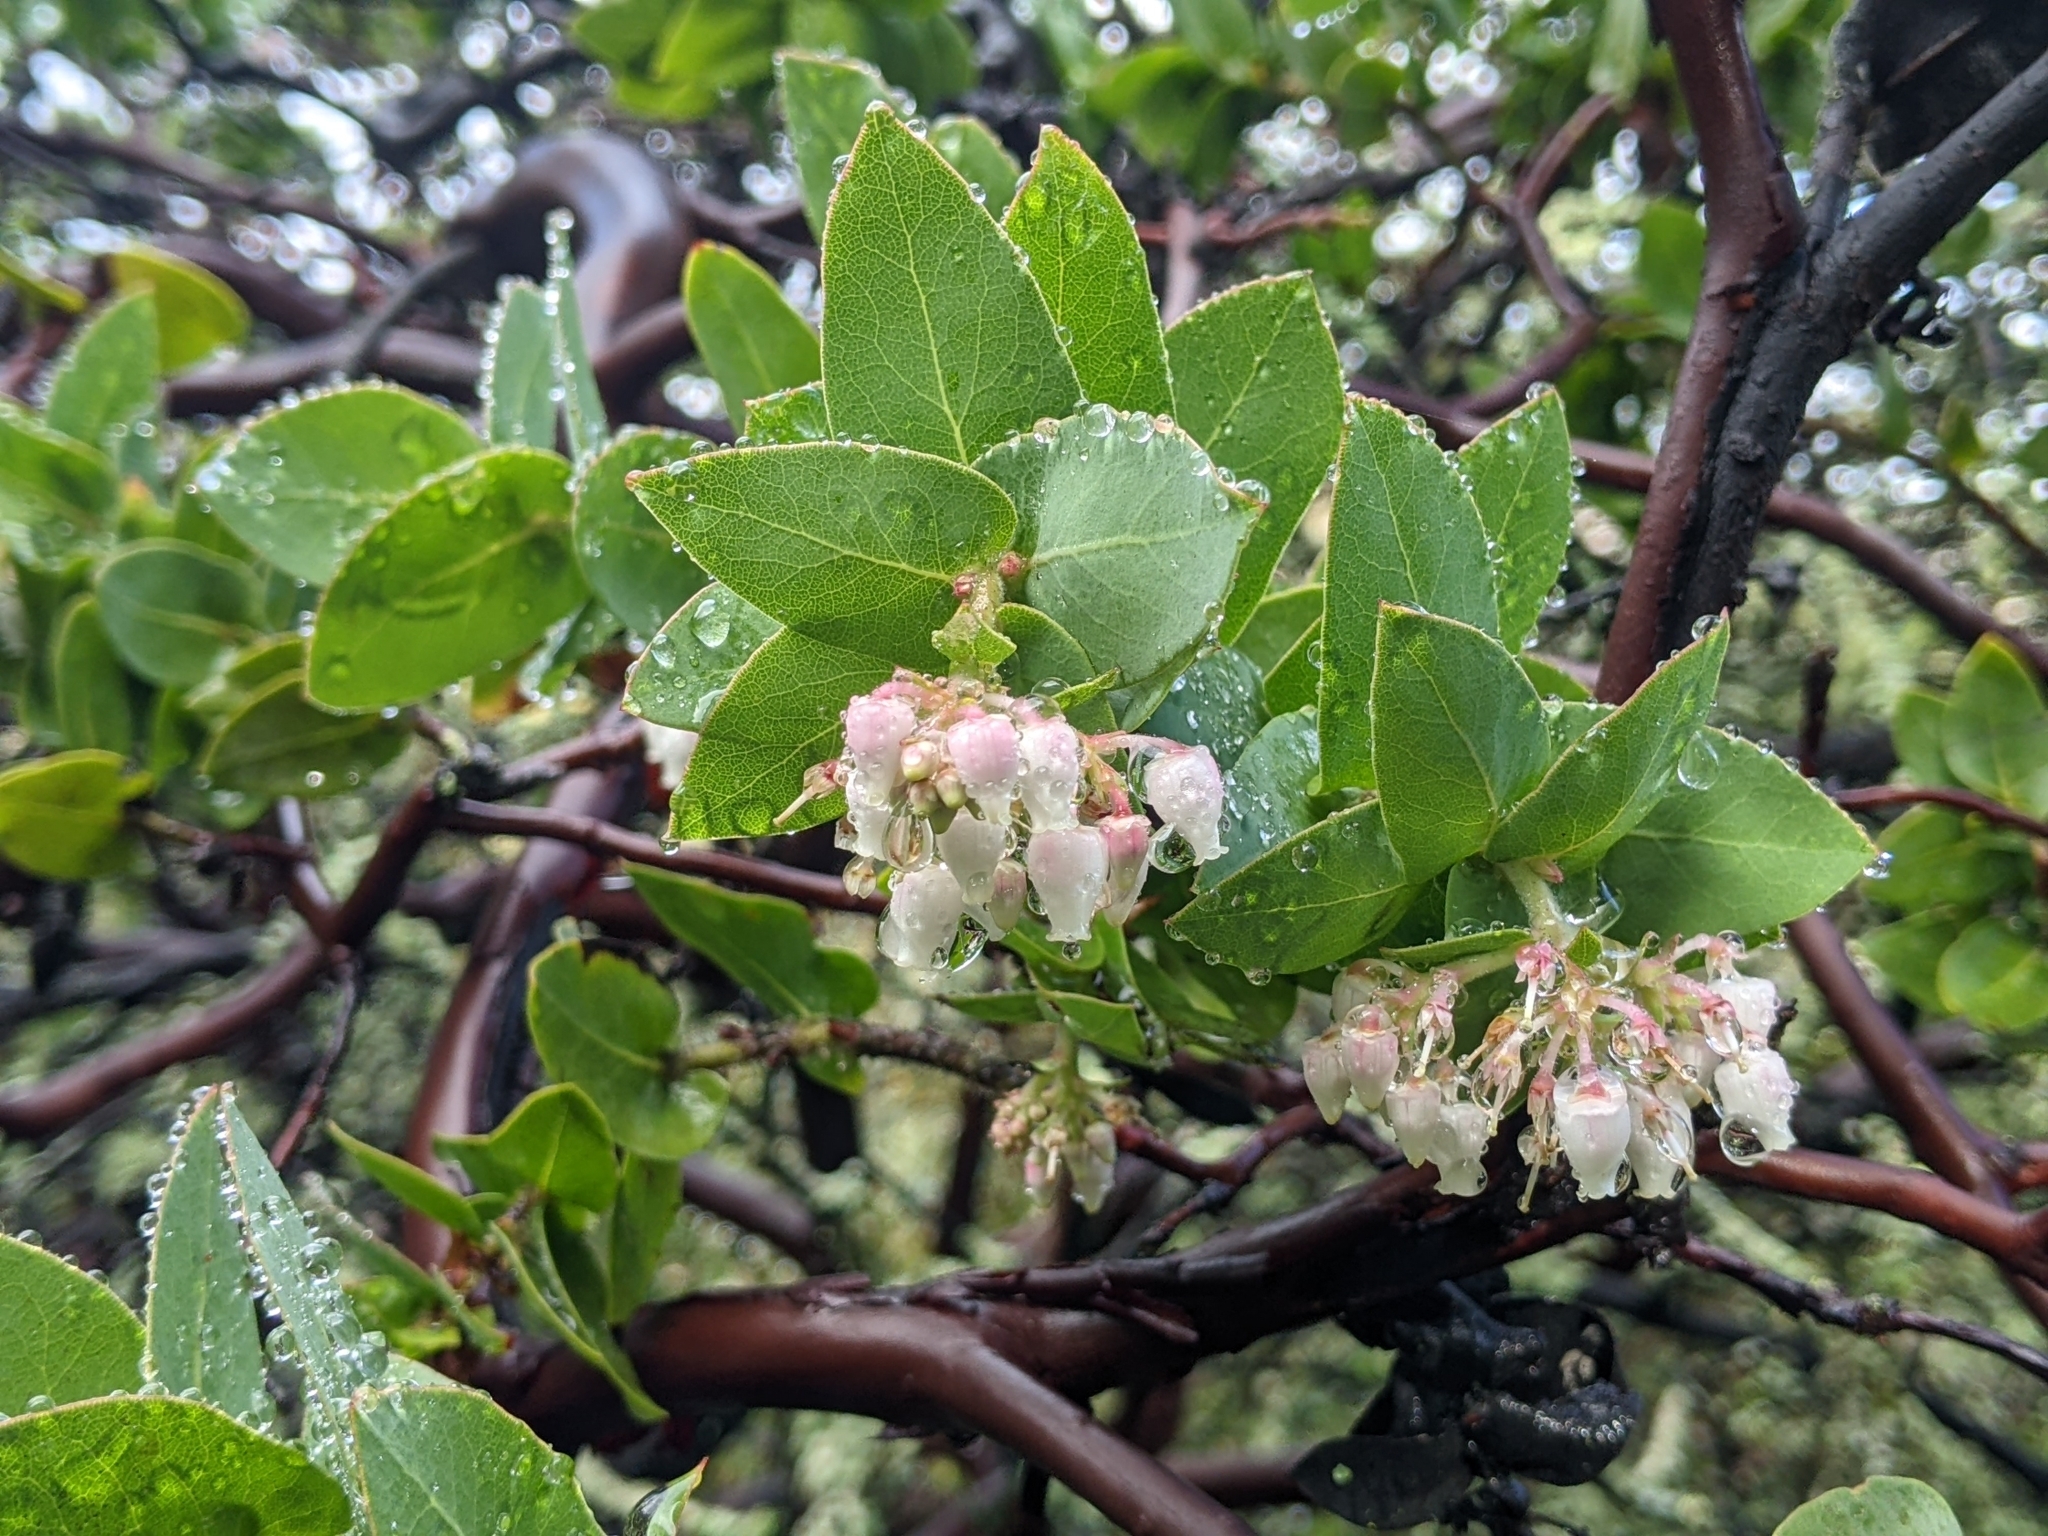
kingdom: Plantae
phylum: Tracheophyta
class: Magnoliopsida
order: Ericales
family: Ericaceae
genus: Arctostaphylos
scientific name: Arctostaphylos pallida
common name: Pallid manzanita
